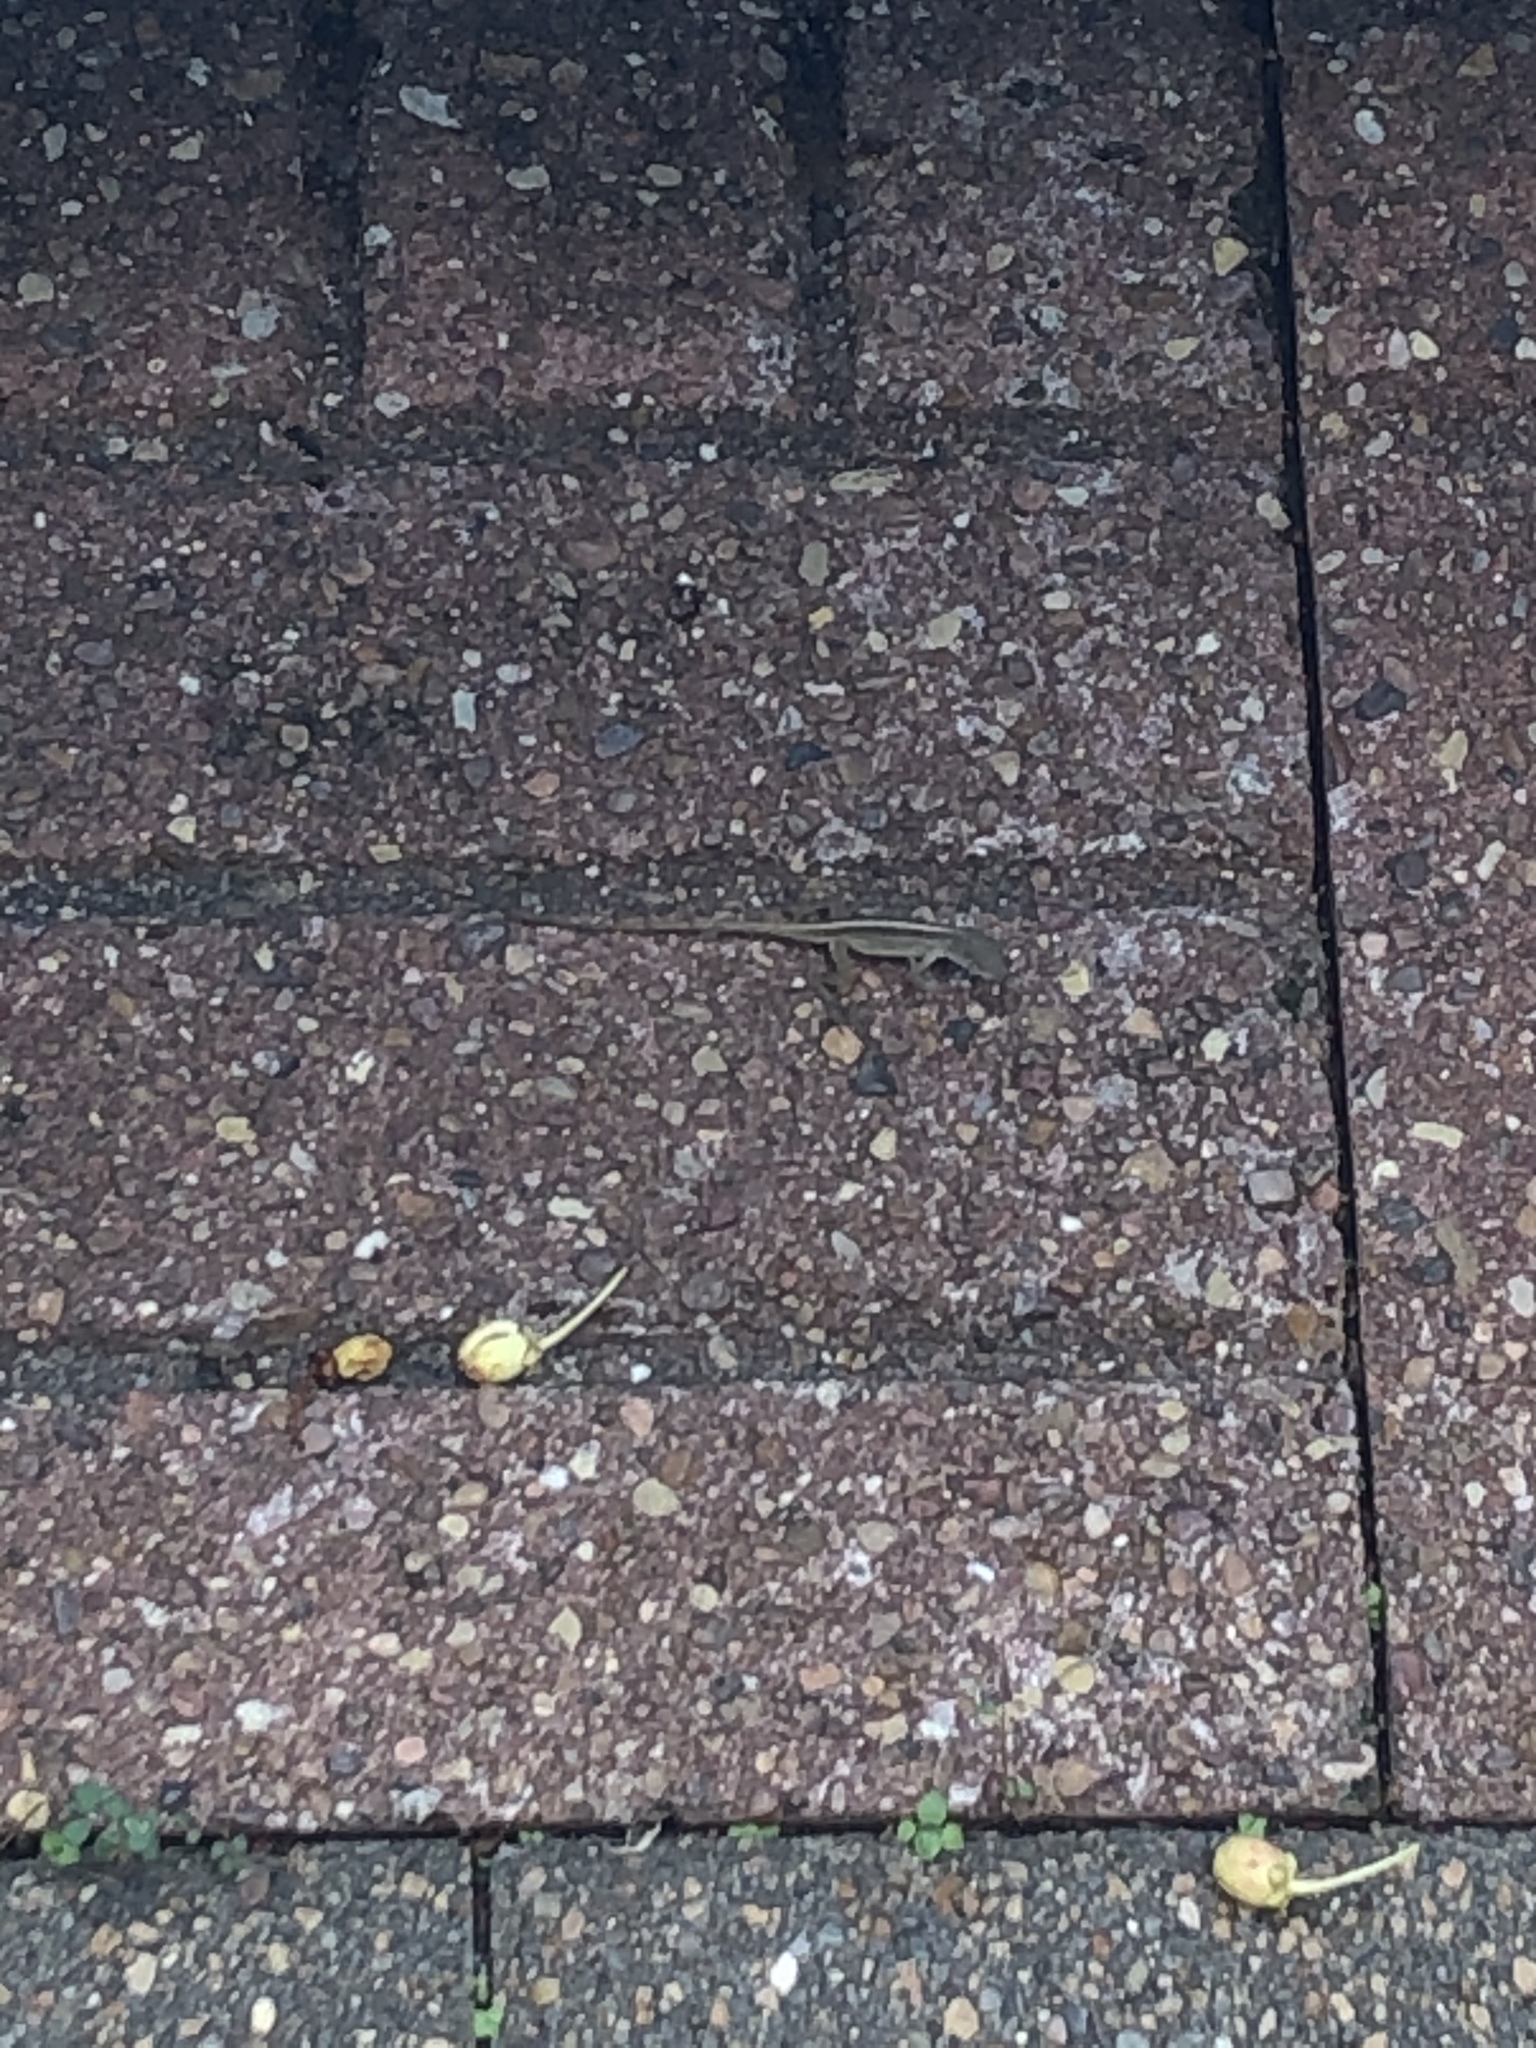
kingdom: Animalia
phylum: Chordata
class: Squamata
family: Dactyloidae
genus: Anolis
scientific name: Anolis sagrei
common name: Brown anole
